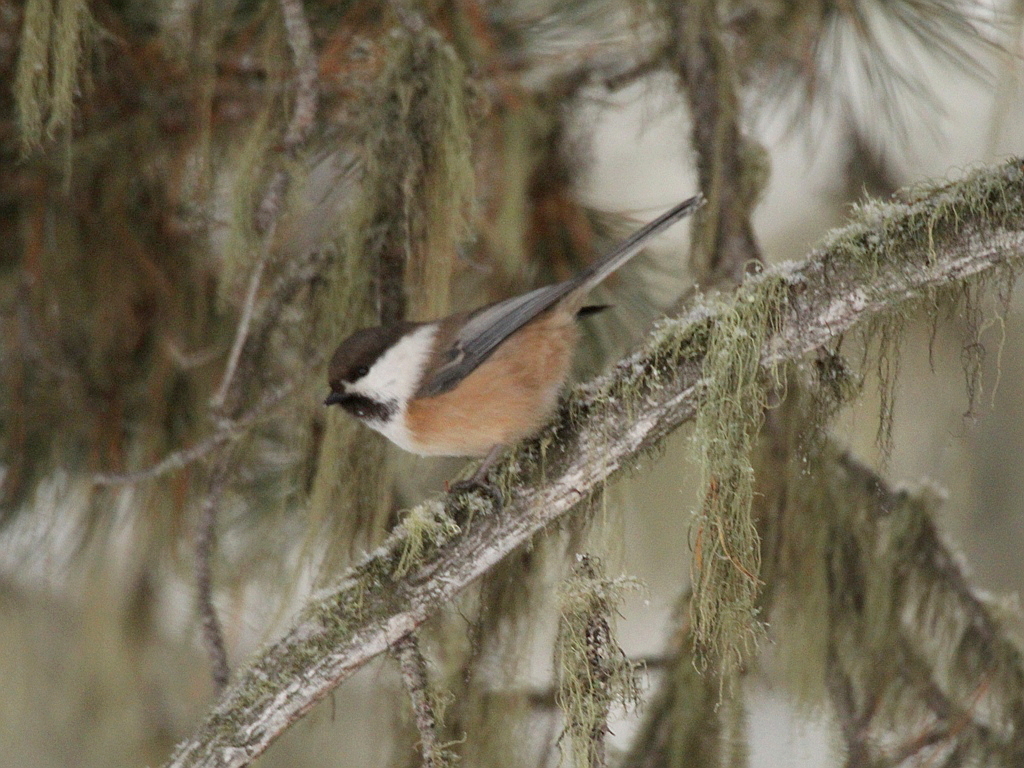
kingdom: Animalia
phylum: Chordata
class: Aves
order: Passeriformes
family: Paridae
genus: Poecile
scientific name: Poecile cinctus
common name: Gray-headed chickadee
